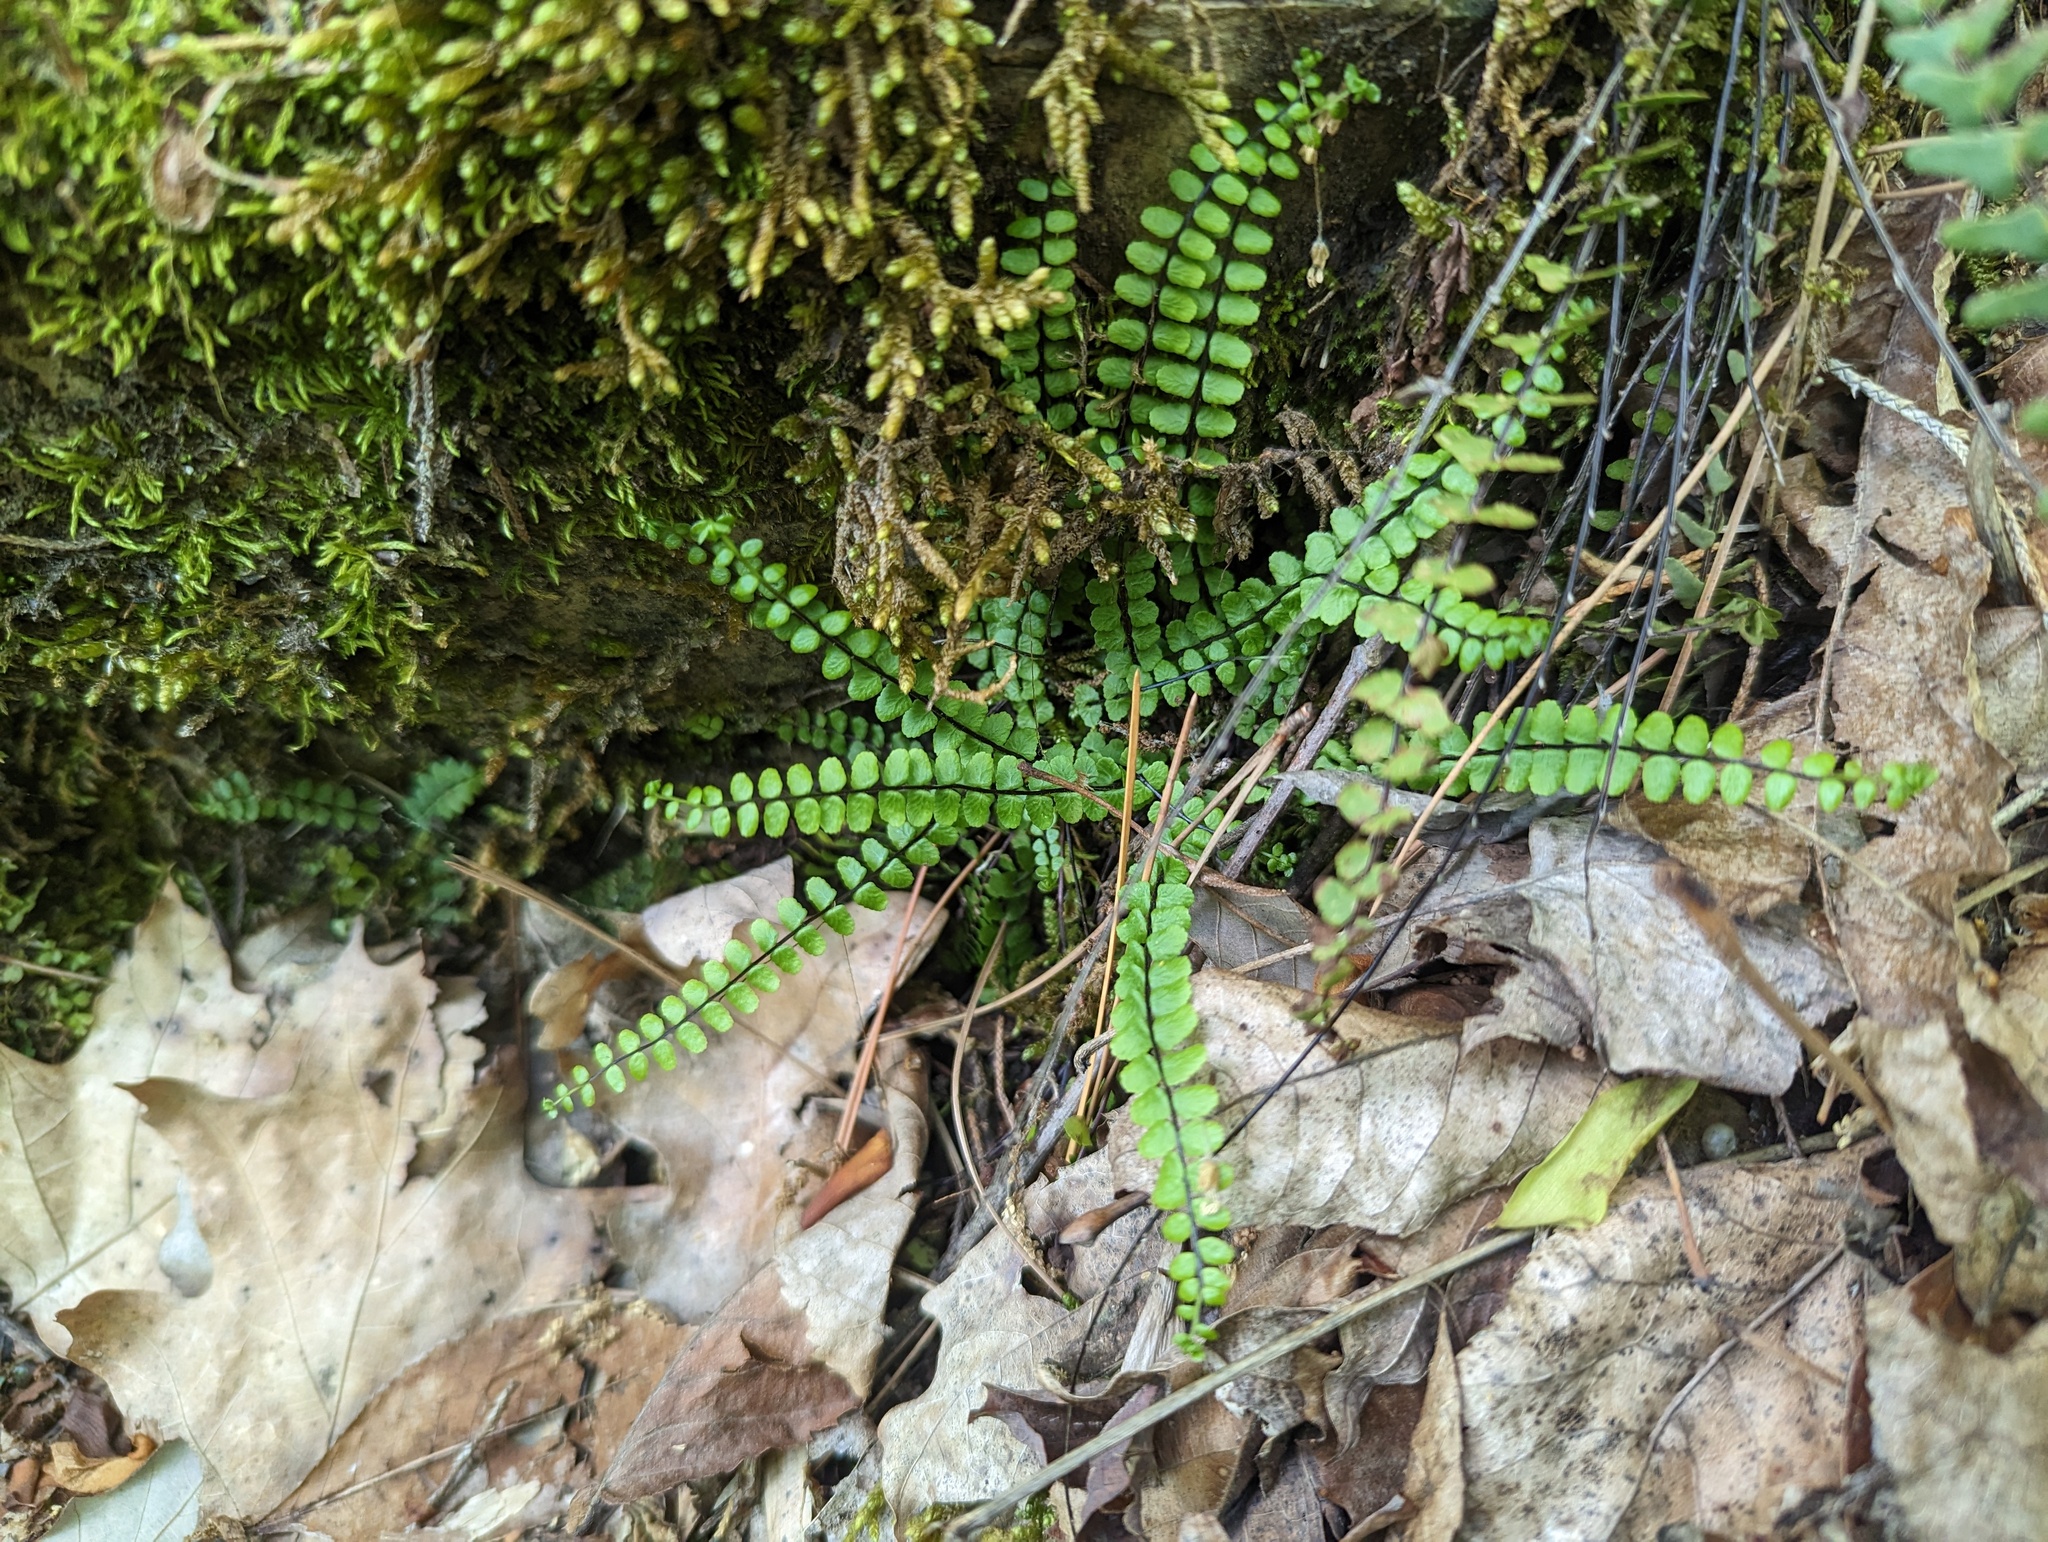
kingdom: Plantae
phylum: Tracheophyta
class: Polypodiopsida
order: Polypodiales
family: Aspleniaceae
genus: Asplenium
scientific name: Asplenium quadrivalens
